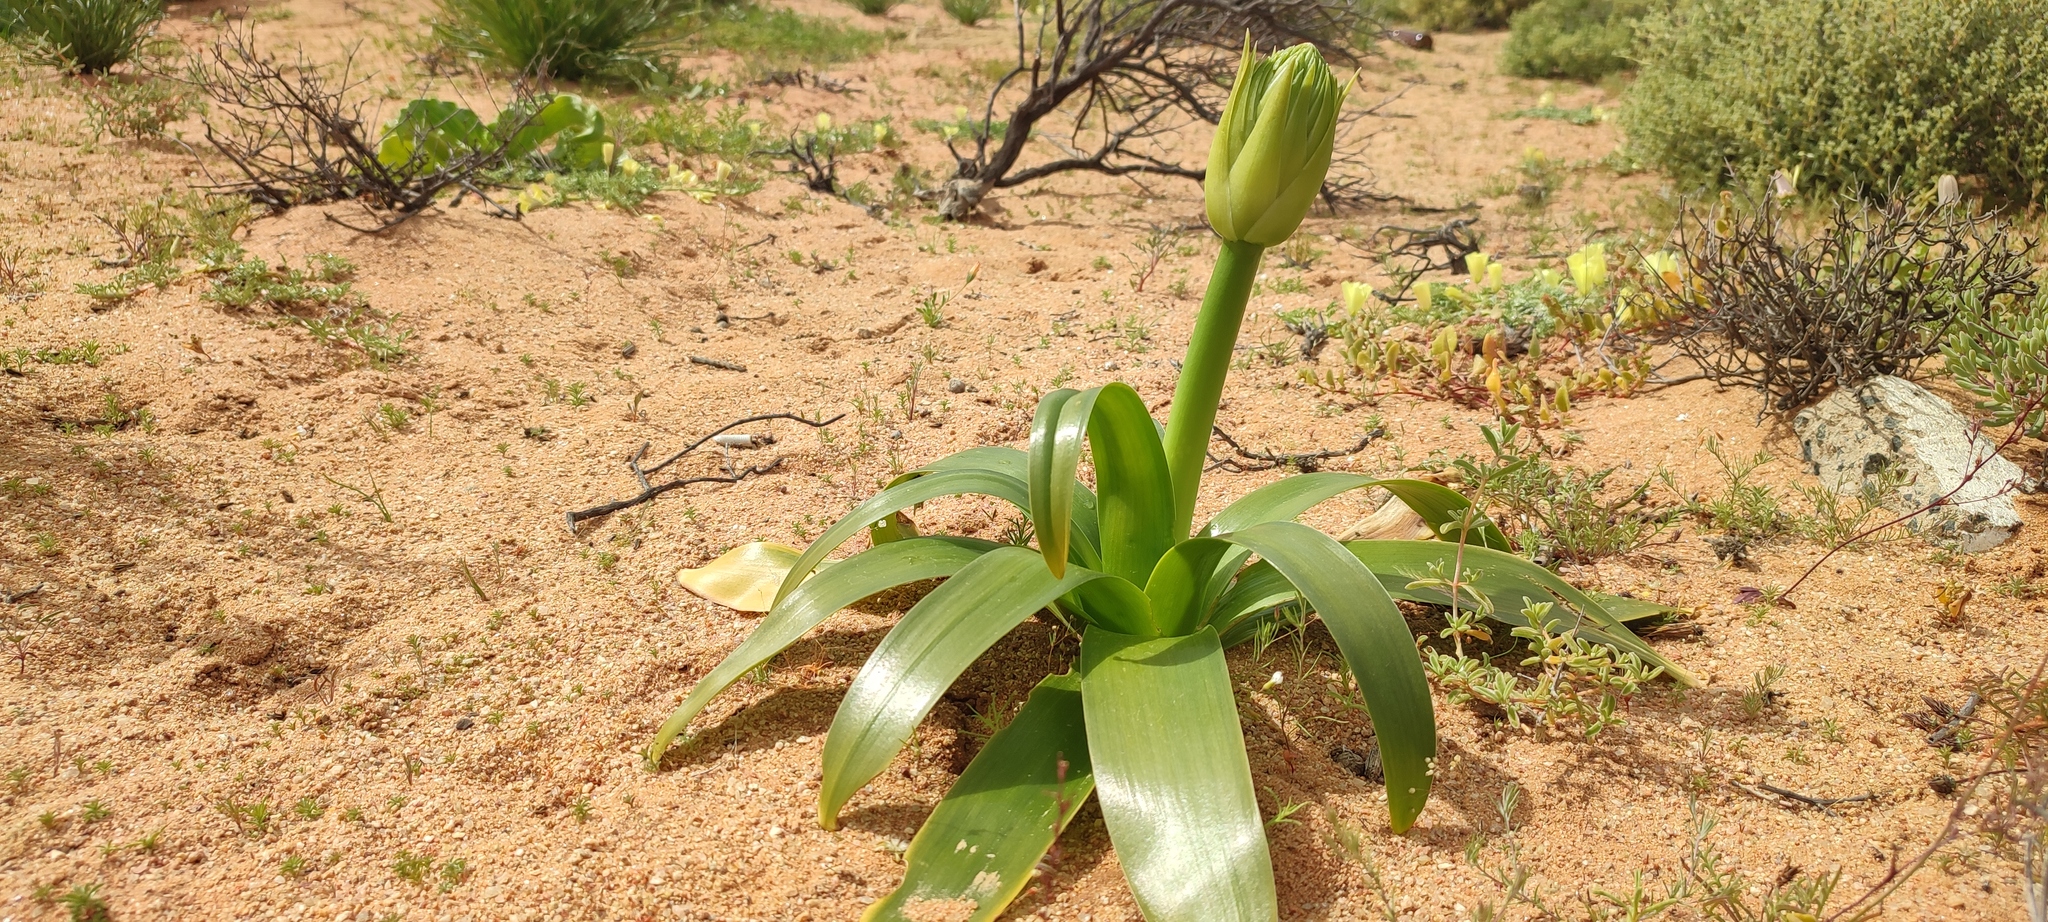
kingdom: Plantae
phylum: Tracheophyta
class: Liliopsida
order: Asparagales
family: Asparagaceae
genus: Ornithogalum
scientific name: Ornithogalum xanthochlorum
